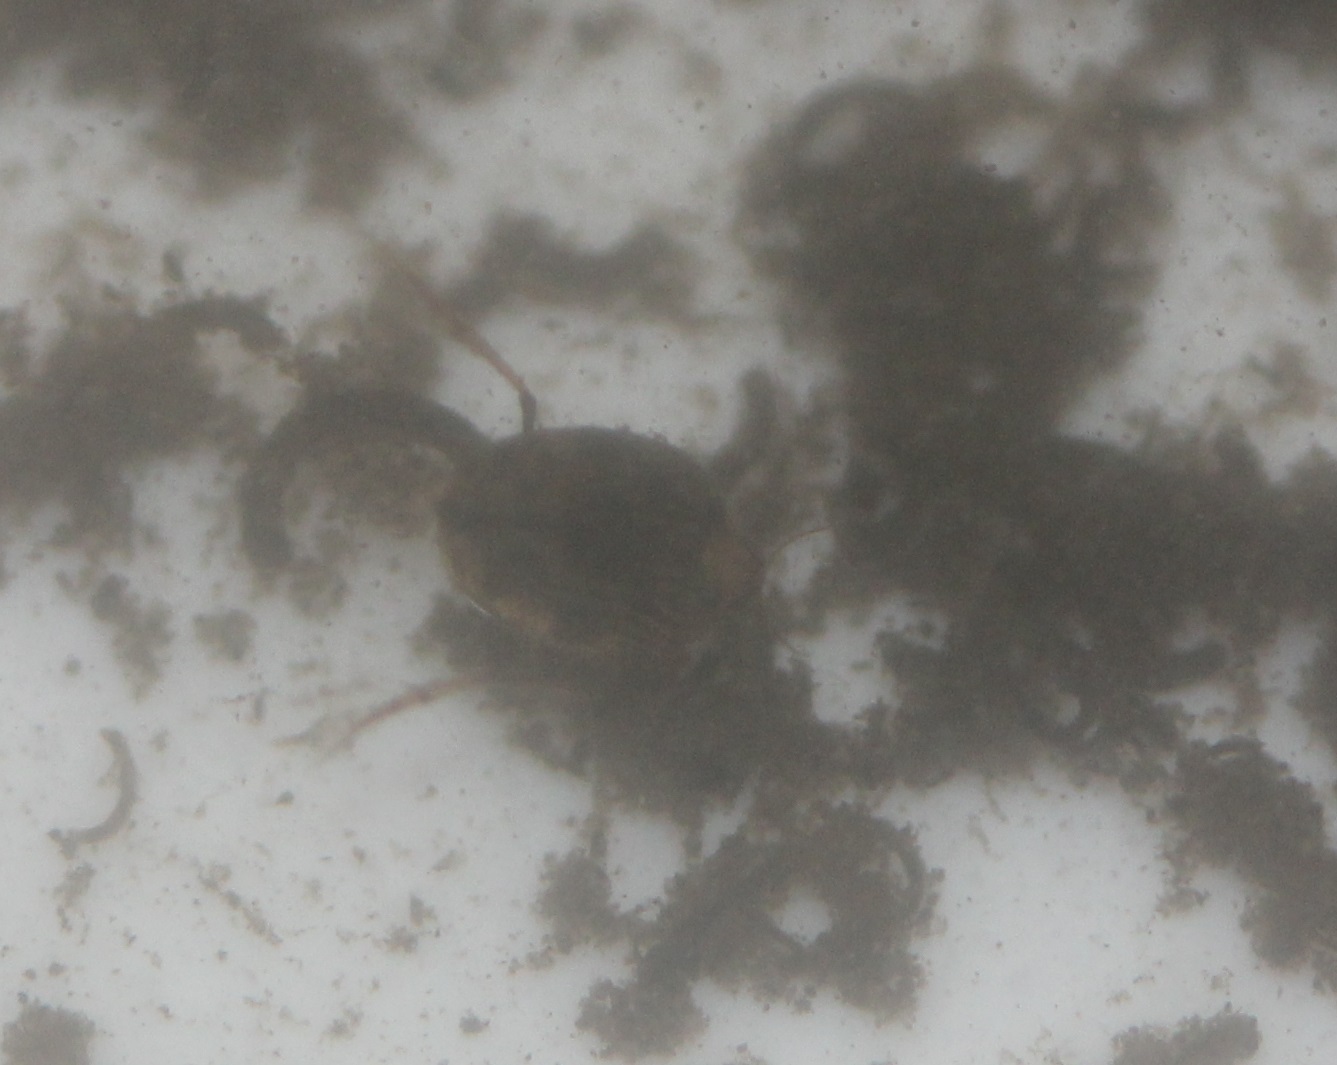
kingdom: Animalia
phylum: Arthropoda
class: Insecta
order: Coleoptera
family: Haliplidae
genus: Peltodytes
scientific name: Peltodytes
